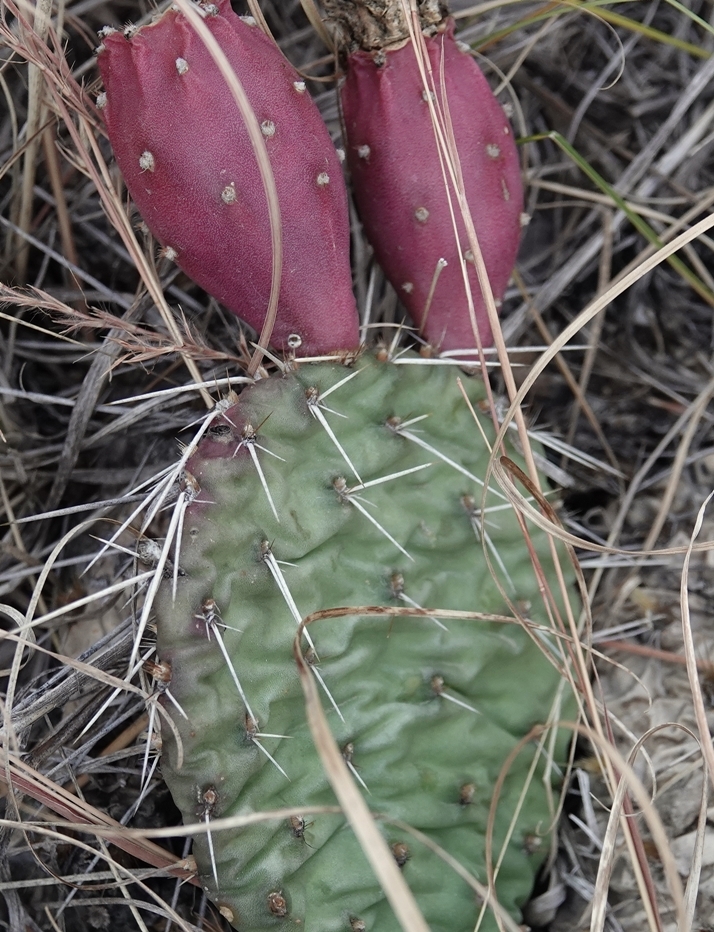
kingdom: Plantae
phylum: Tracheophyta
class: Magnoliopsida
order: Caryophyllales
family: Cactaceae
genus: Opuntia
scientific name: Opuntia cymochila
